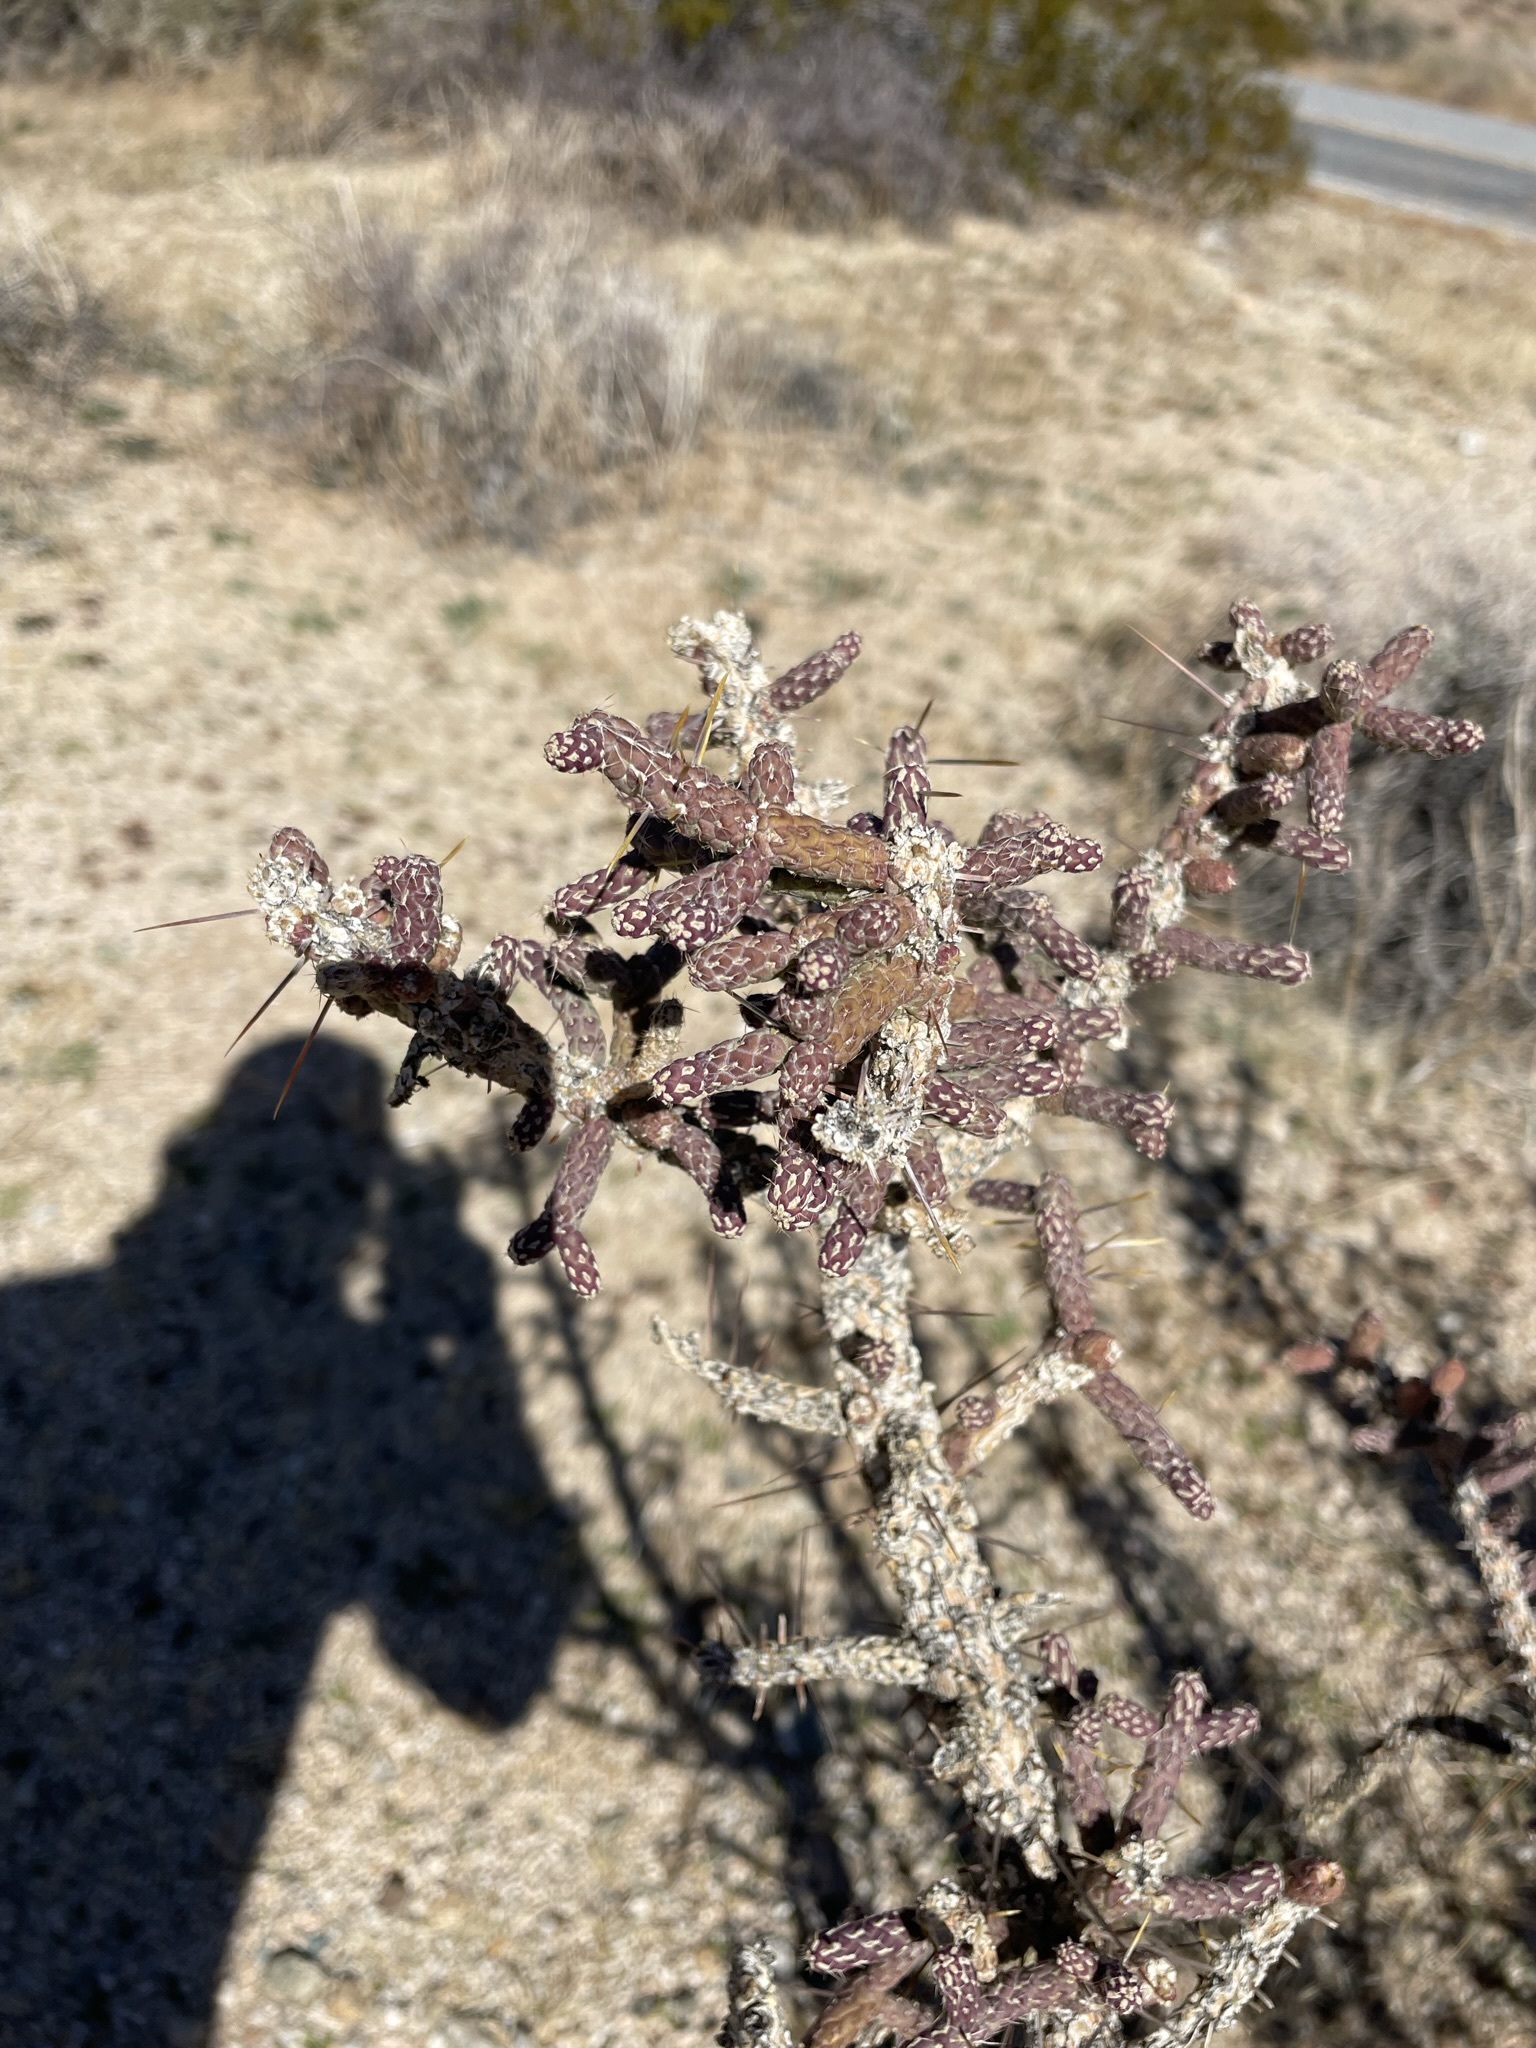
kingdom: Plantae
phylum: Tracheophyta
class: Magnoliopsida
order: Caryophyllales
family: Cactaceae
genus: Cylindropuntia
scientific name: Cylindropuntia ramosissima
